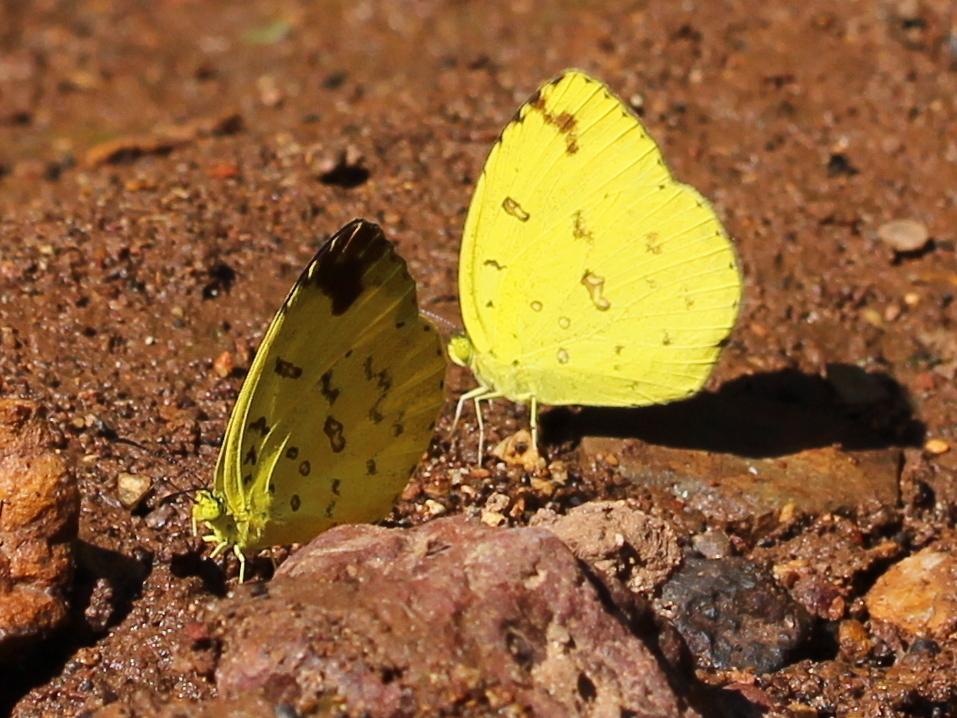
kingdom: Animalia
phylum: Arthropoda
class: Insecta
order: Lepidoptera
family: Pieridae
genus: Eurema
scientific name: Eurema blanda
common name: Three-spot grass yellow
